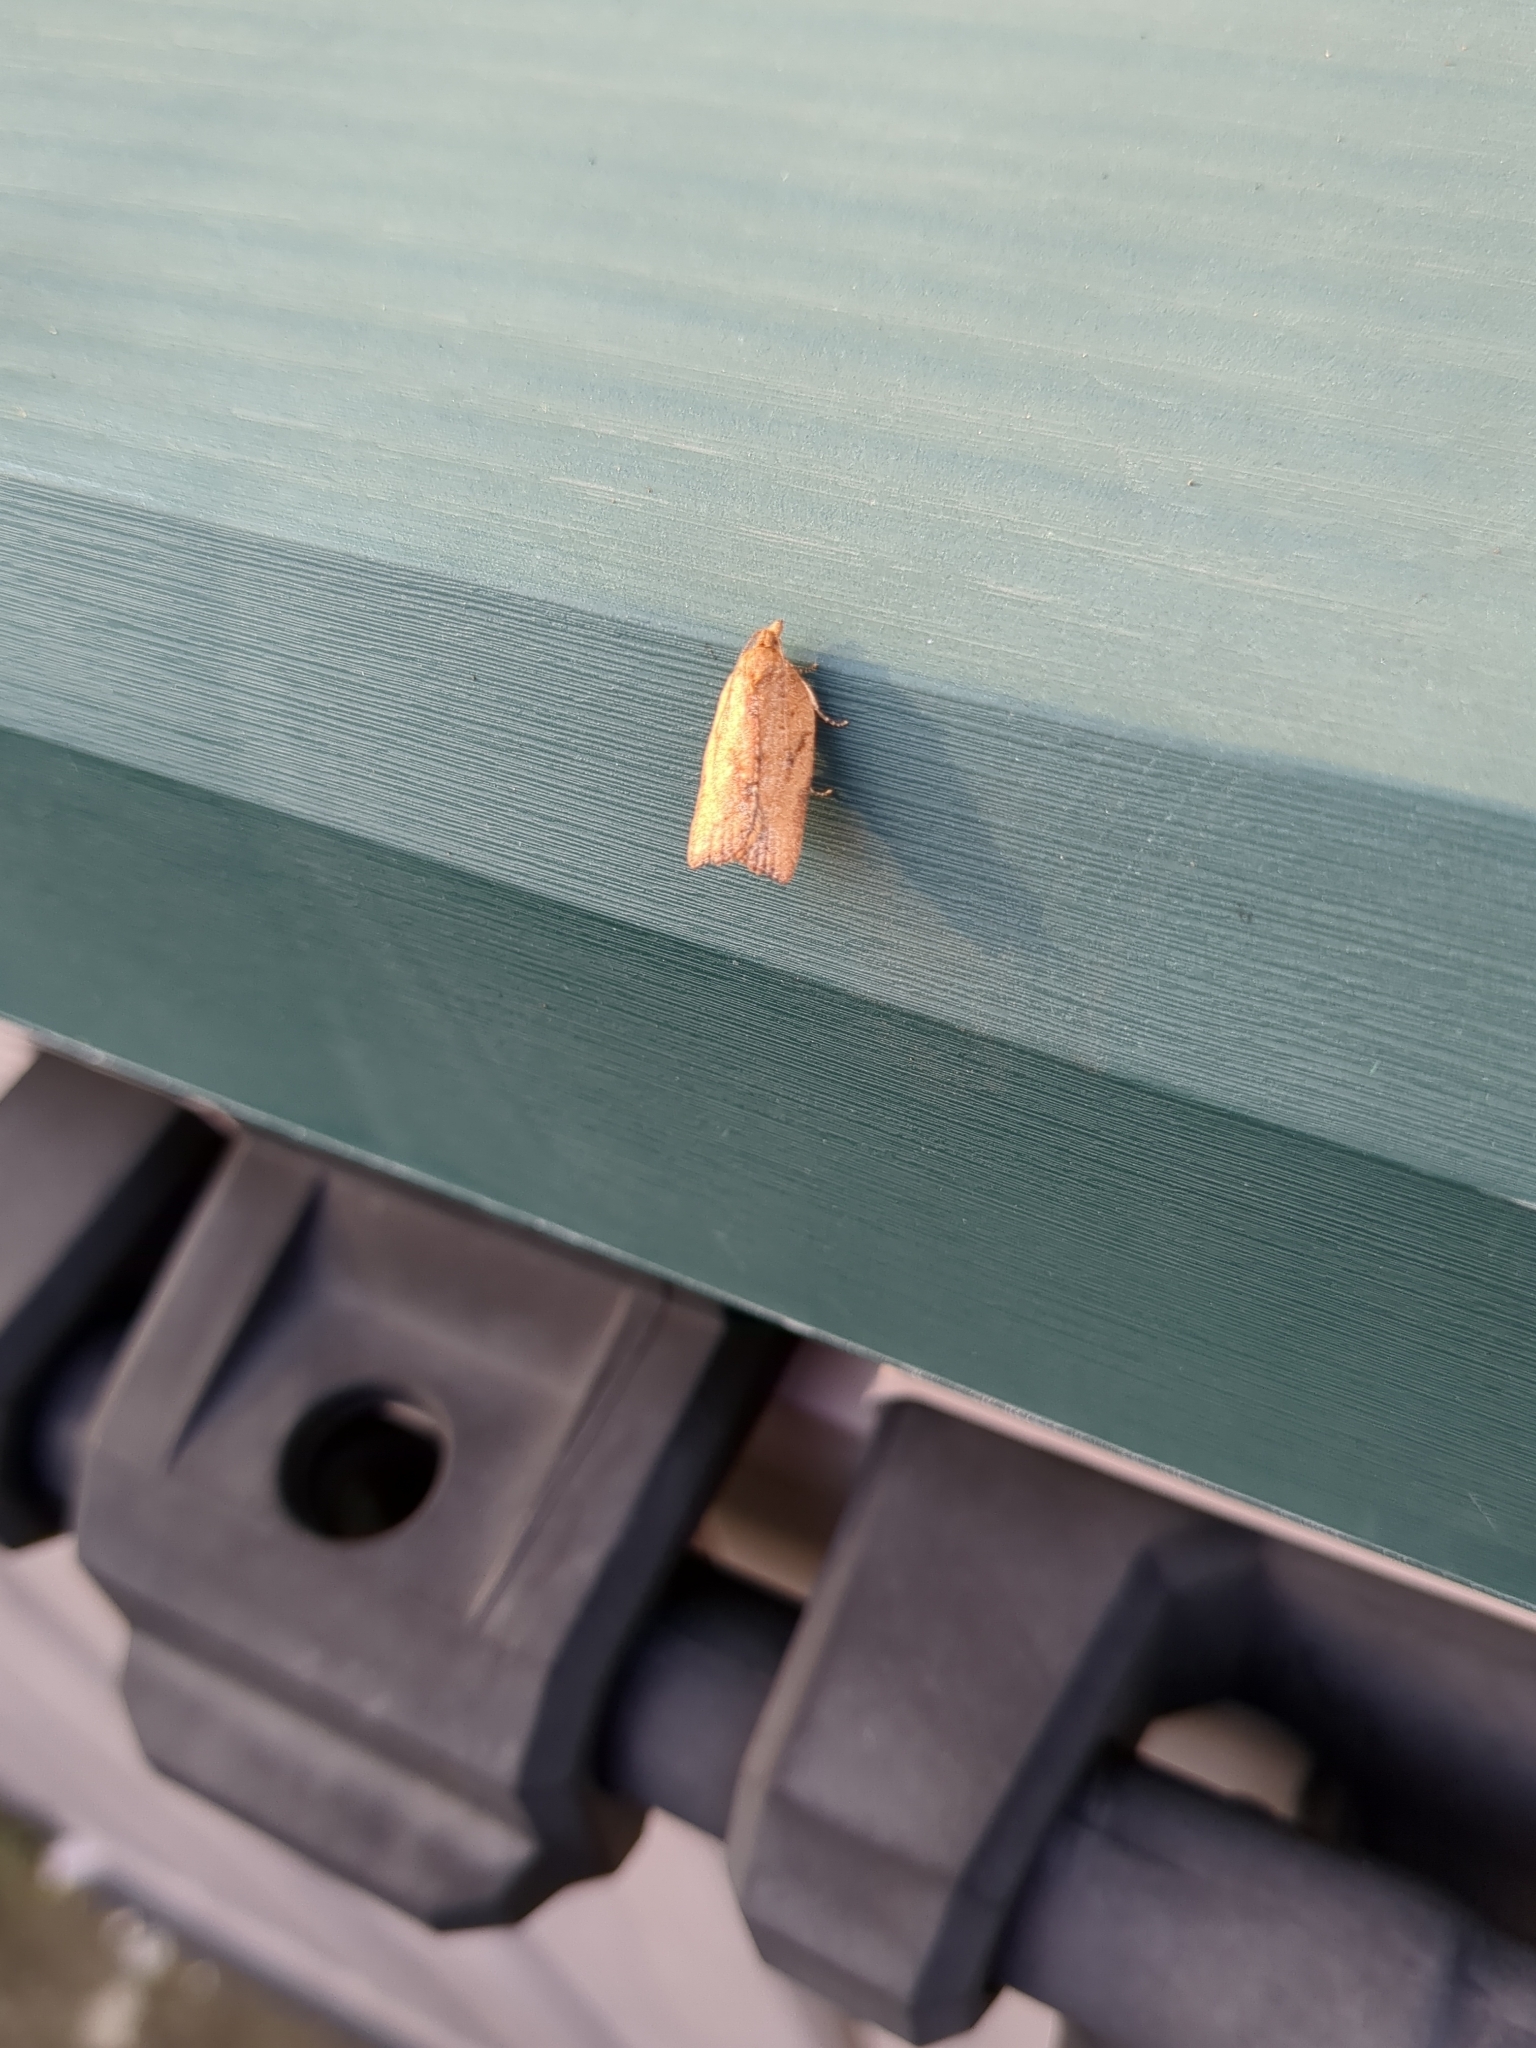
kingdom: Animalia
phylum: Arthropoda
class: Insecta
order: Lepidoptera
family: Tortricidae
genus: Epiphyas
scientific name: Epiphyas postvittana
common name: Light brown apple moth
